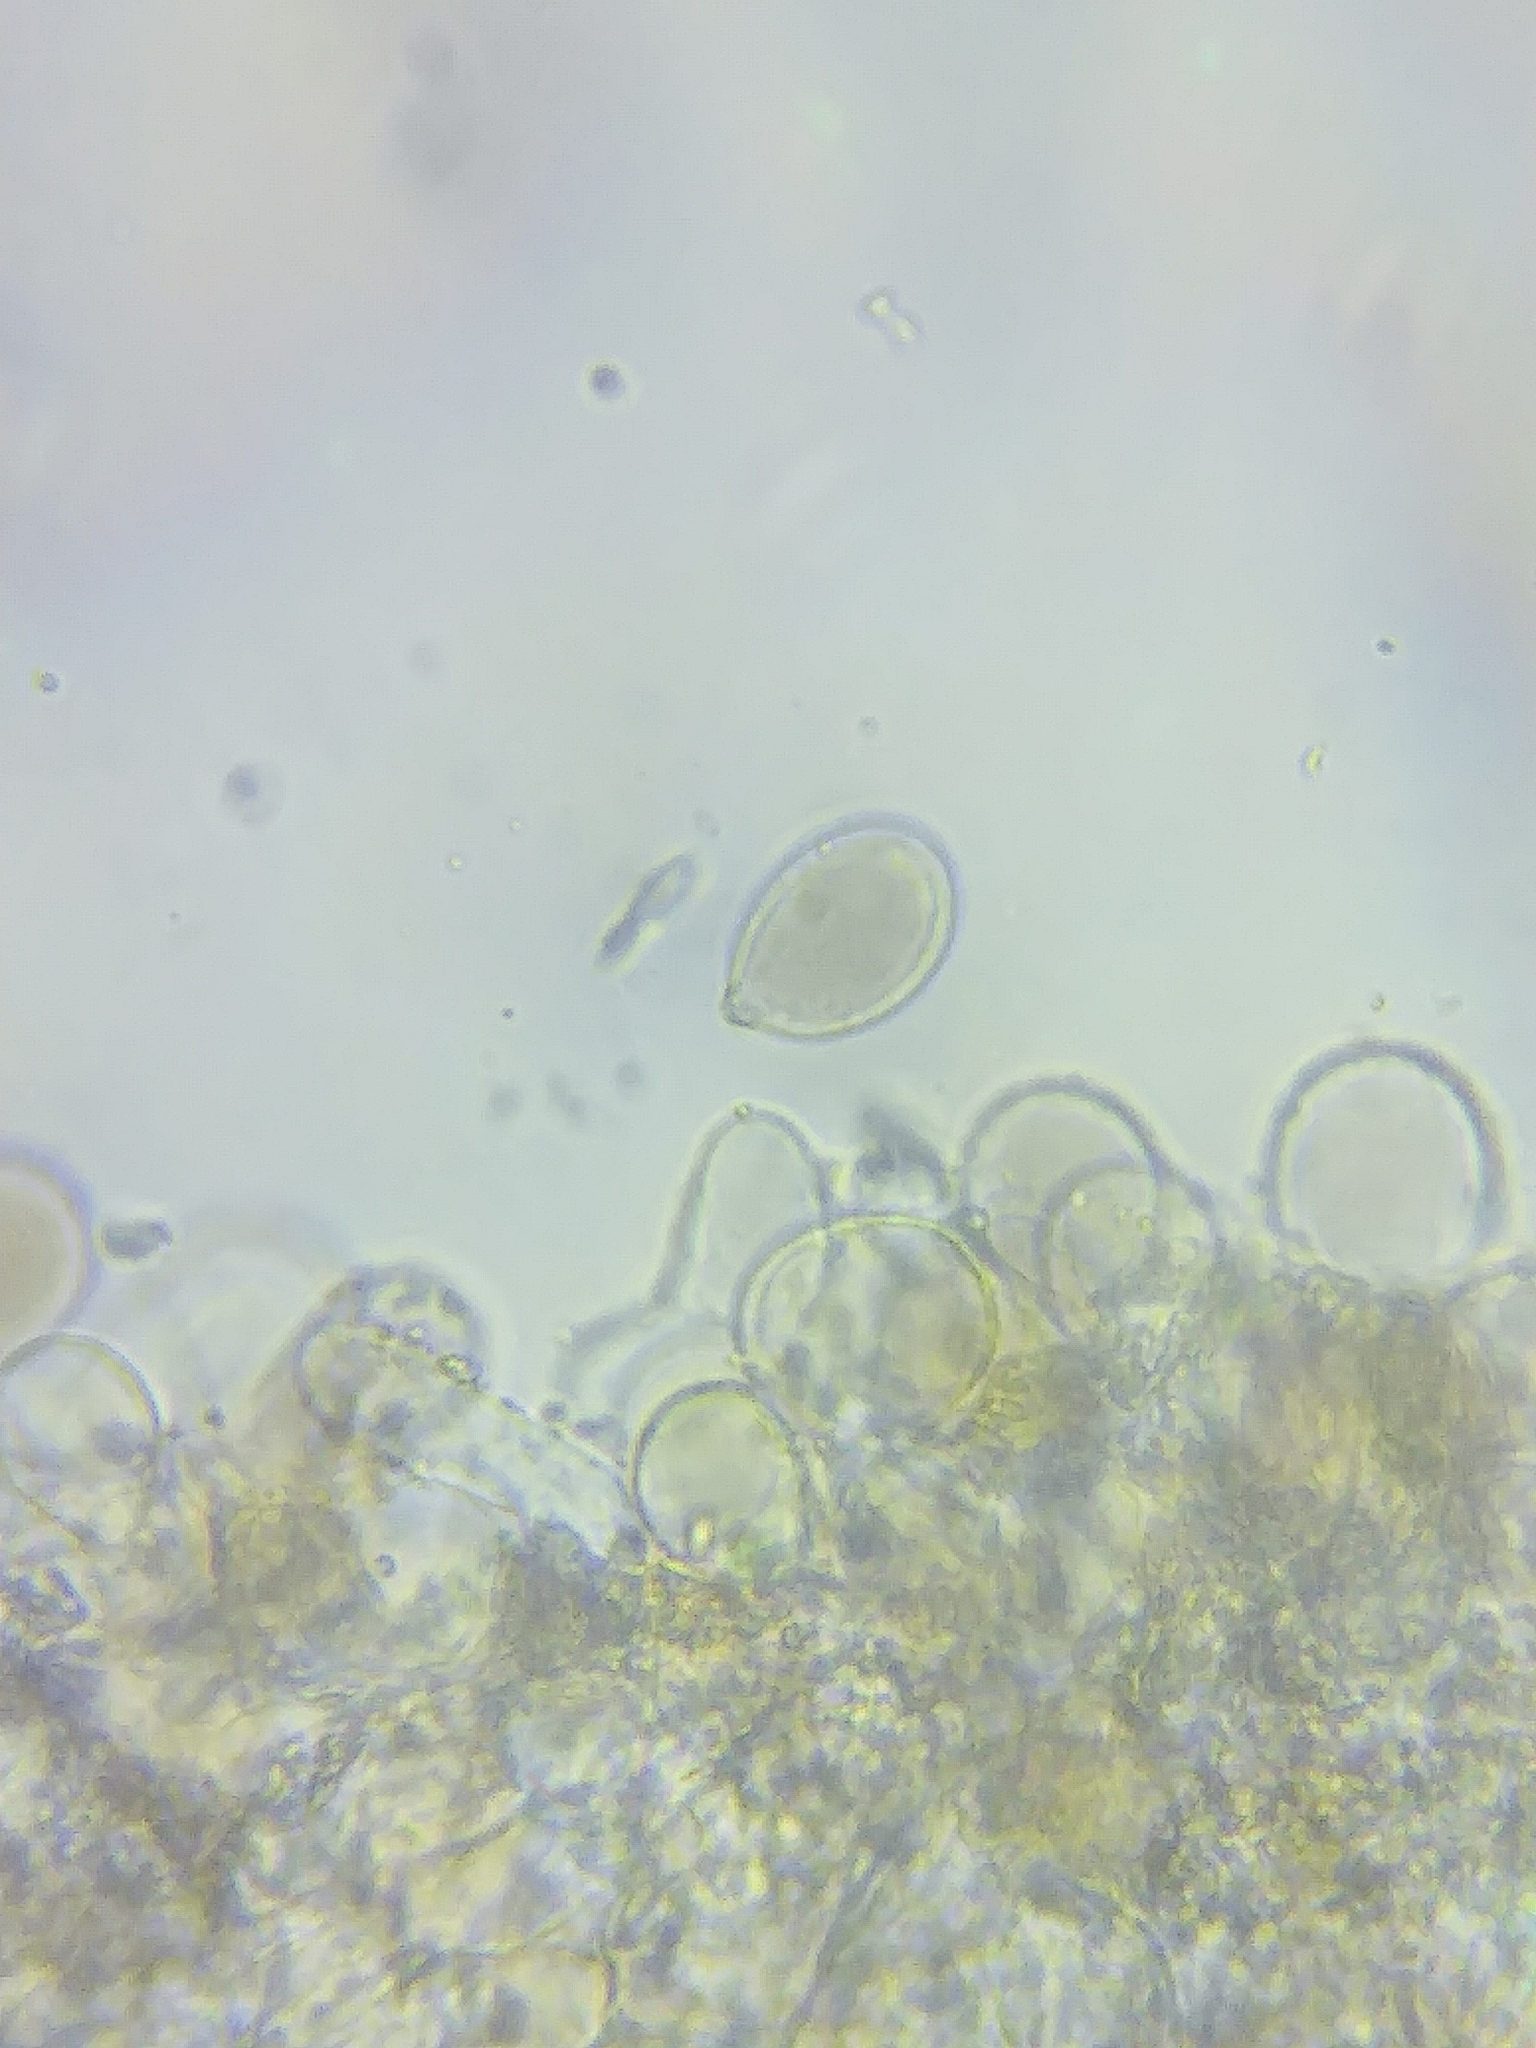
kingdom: Fungi
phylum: Basidiomycota
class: Agaricomycetes
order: Agaricales
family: Mycenaceae
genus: Roridomyces
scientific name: Roridomyces roridus
